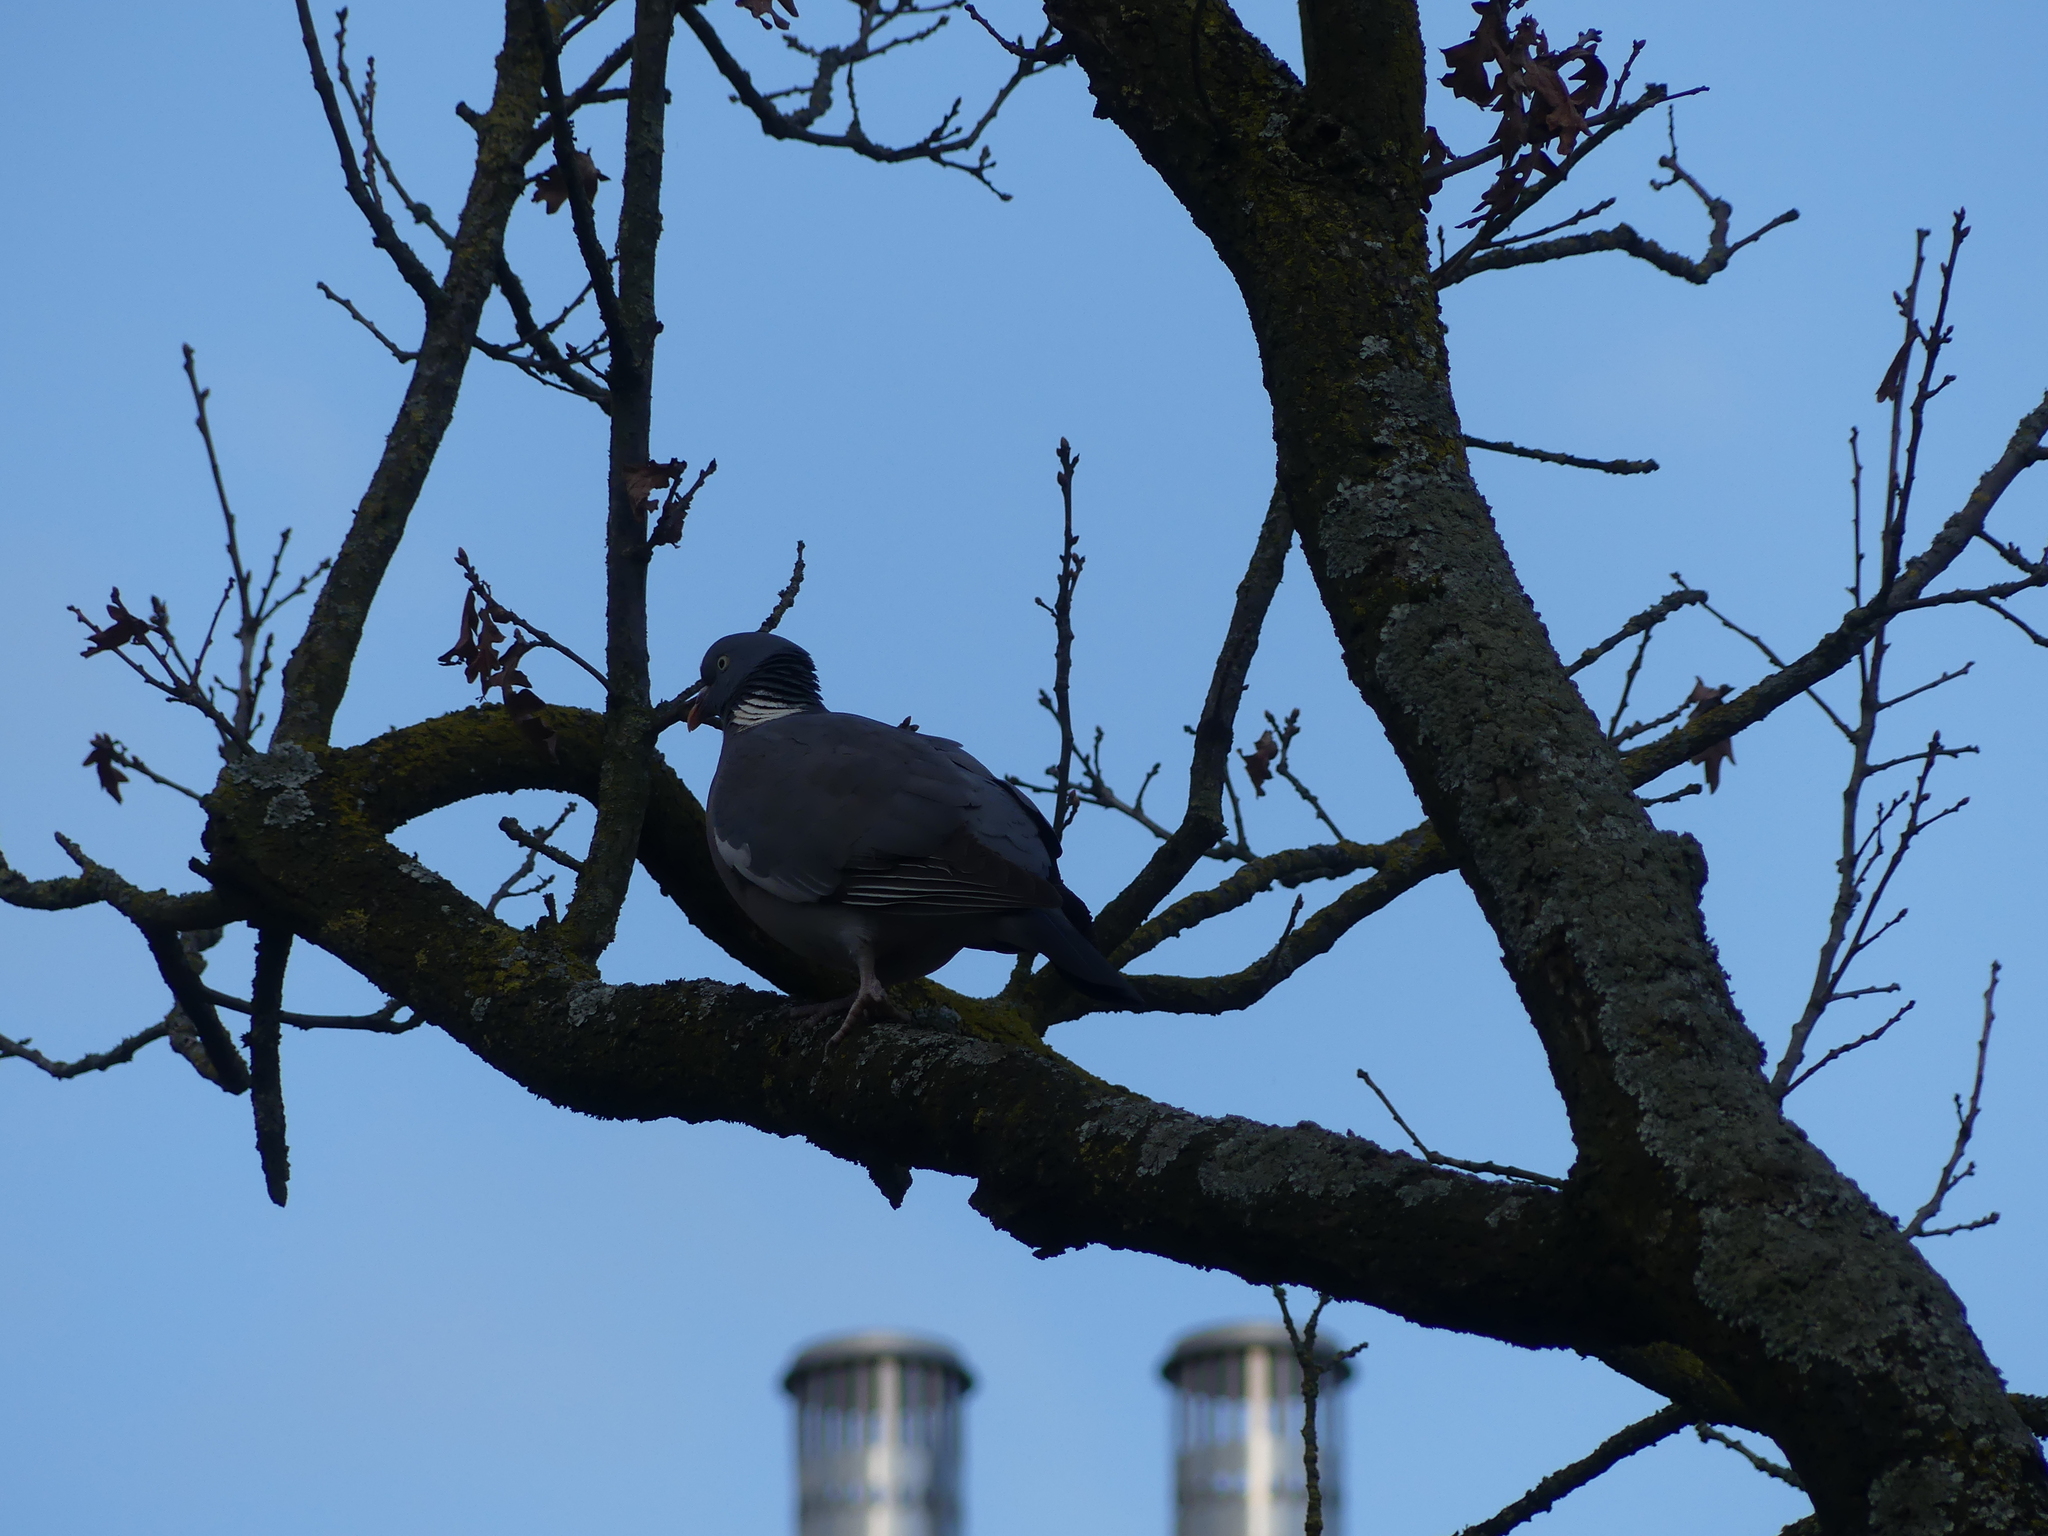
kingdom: Animalia
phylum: Chordata
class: Aves
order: Columbiformes
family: Columbidae
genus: Columba
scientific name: Columba palumbus
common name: Common wood pigeon
